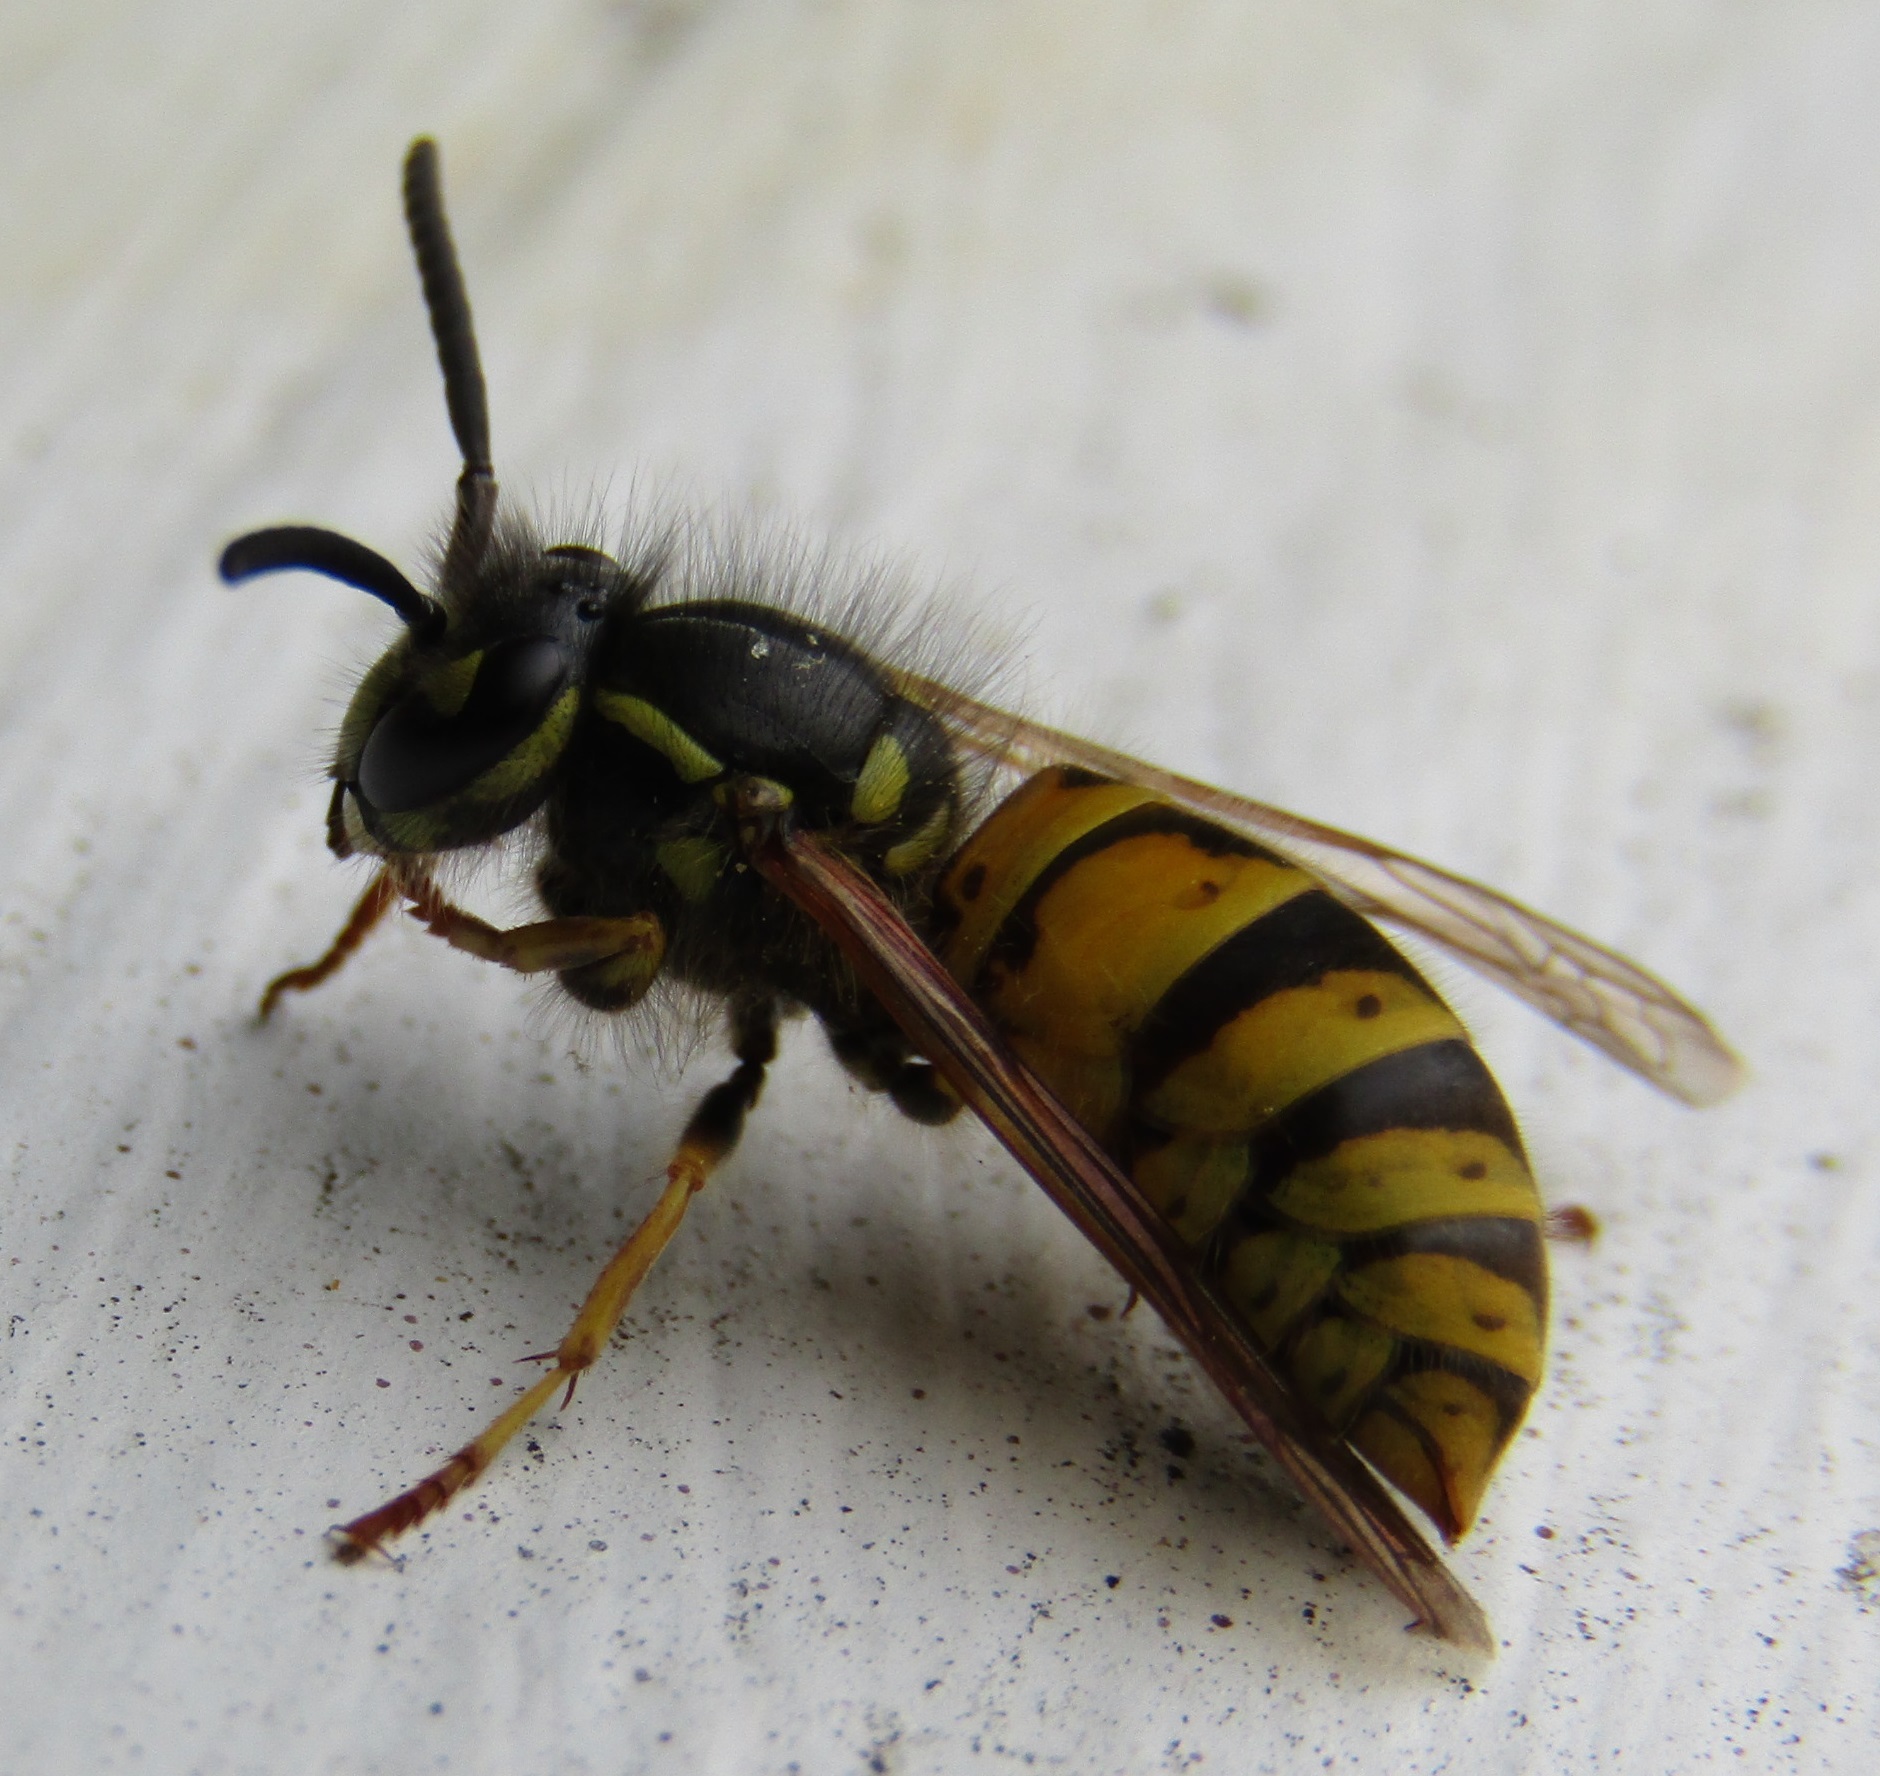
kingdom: Animalia
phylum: Arthropoda
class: Insecta
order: Hymenoptera
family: Vespidae
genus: Vespula
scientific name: Vespula vulgaris
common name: Common wasp
